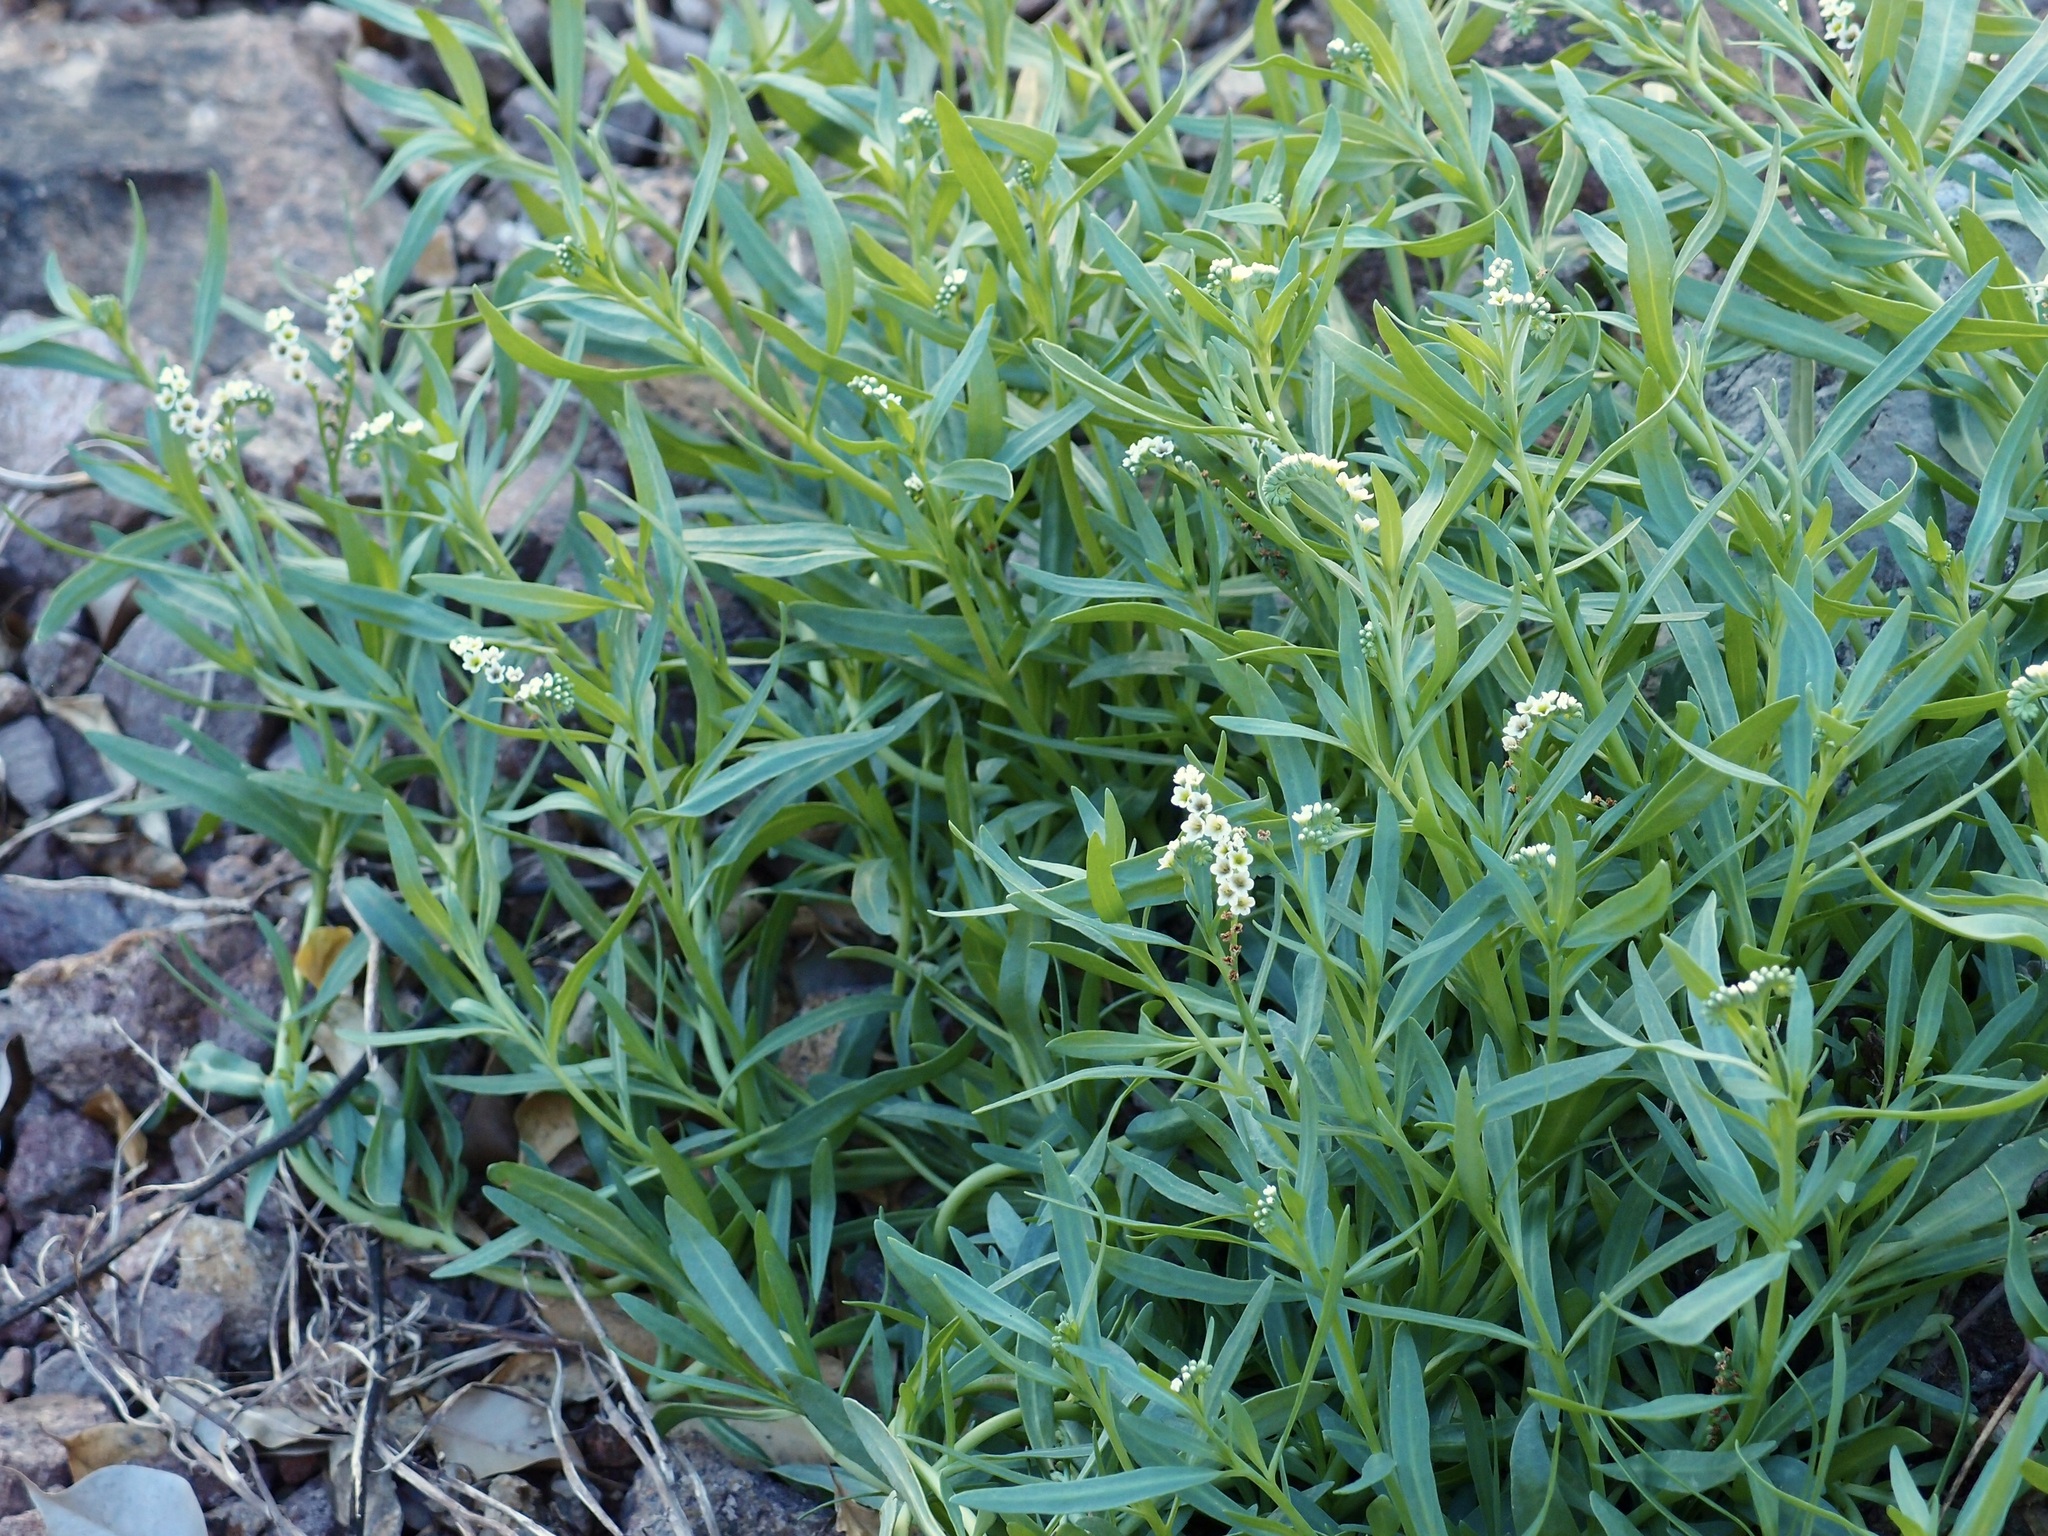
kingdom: Plantae
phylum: Tracheophyta
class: Magnoliopsida
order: Boraginales
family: Heliotropiaceae
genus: Heliotropium
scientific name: Heliotropium curassavicum
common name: Seaside heliotrope
